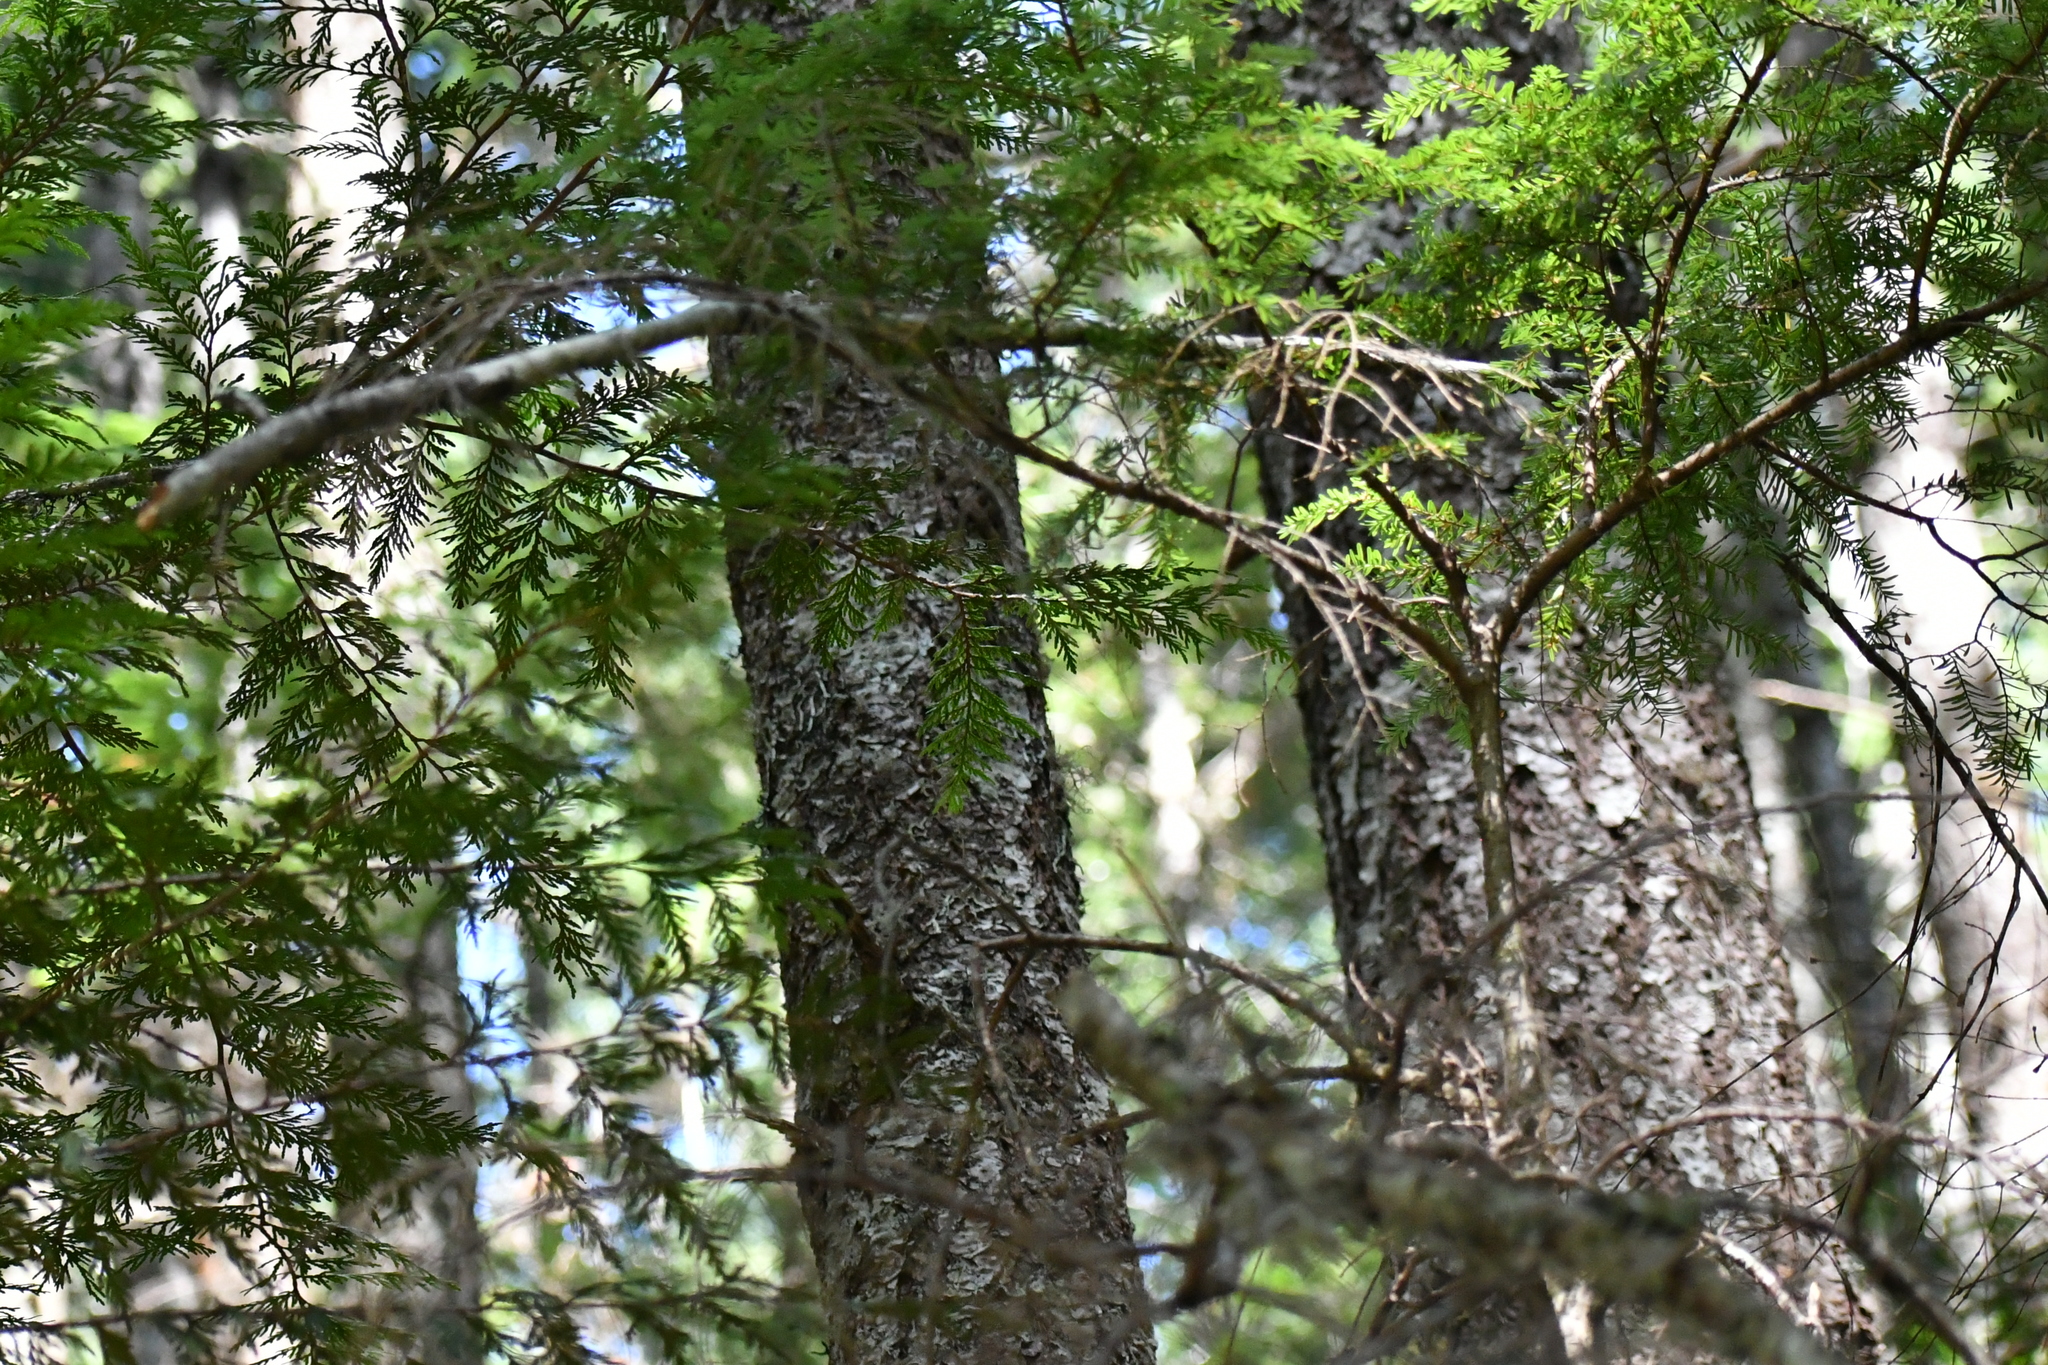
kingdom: Plantae
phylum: Tracheophyta
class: Pinopsida
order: Pinales
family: Pinaceae
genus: Tsuga
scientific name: Tsuga heterophylla
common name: Western hemlock
